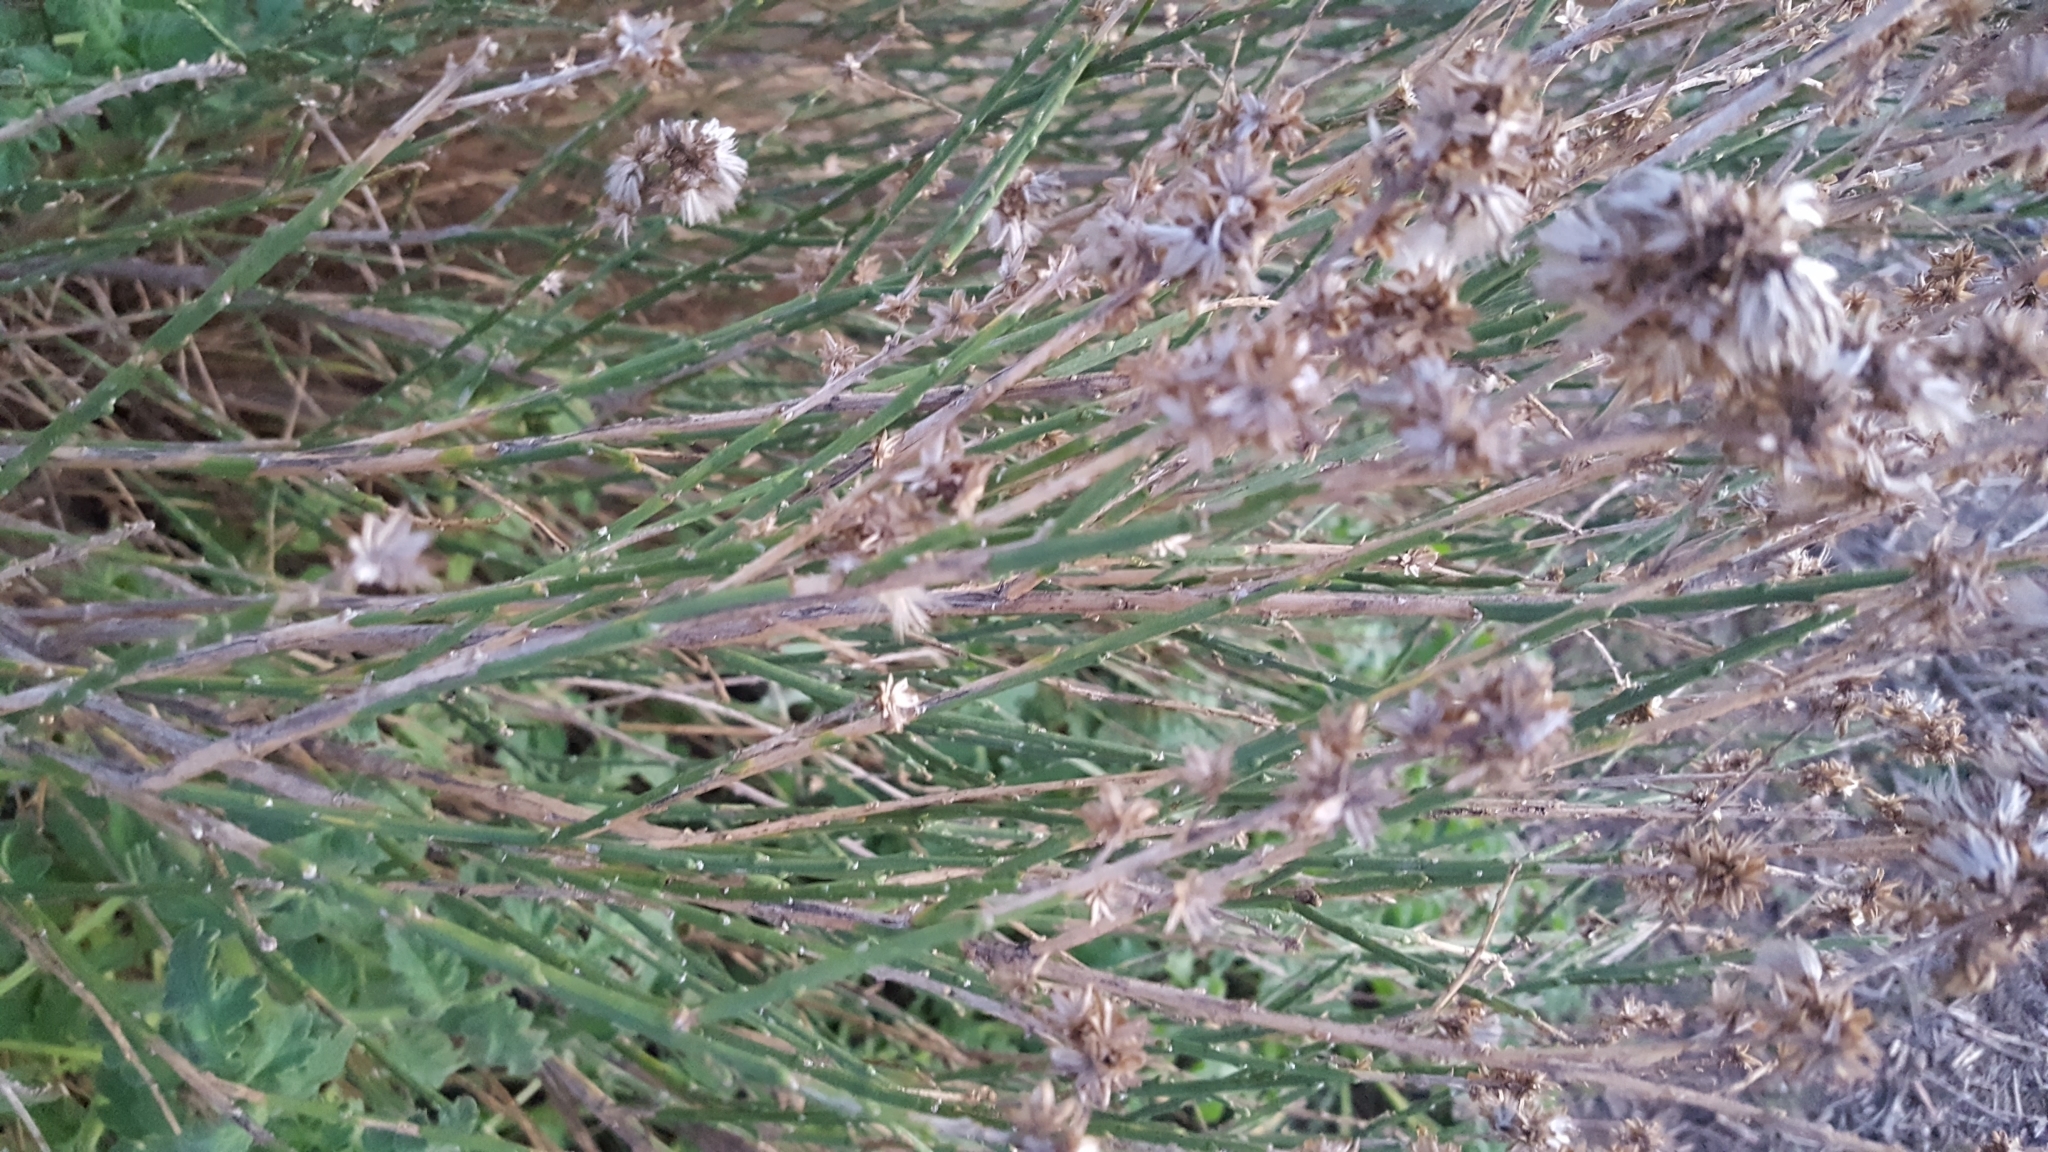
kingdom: Plantae
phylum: Tracheophyta
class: Magnoliopsida
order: Asterales
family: Asteraceae
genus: Lepidospartum
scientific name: Lepidospartum squamatum
